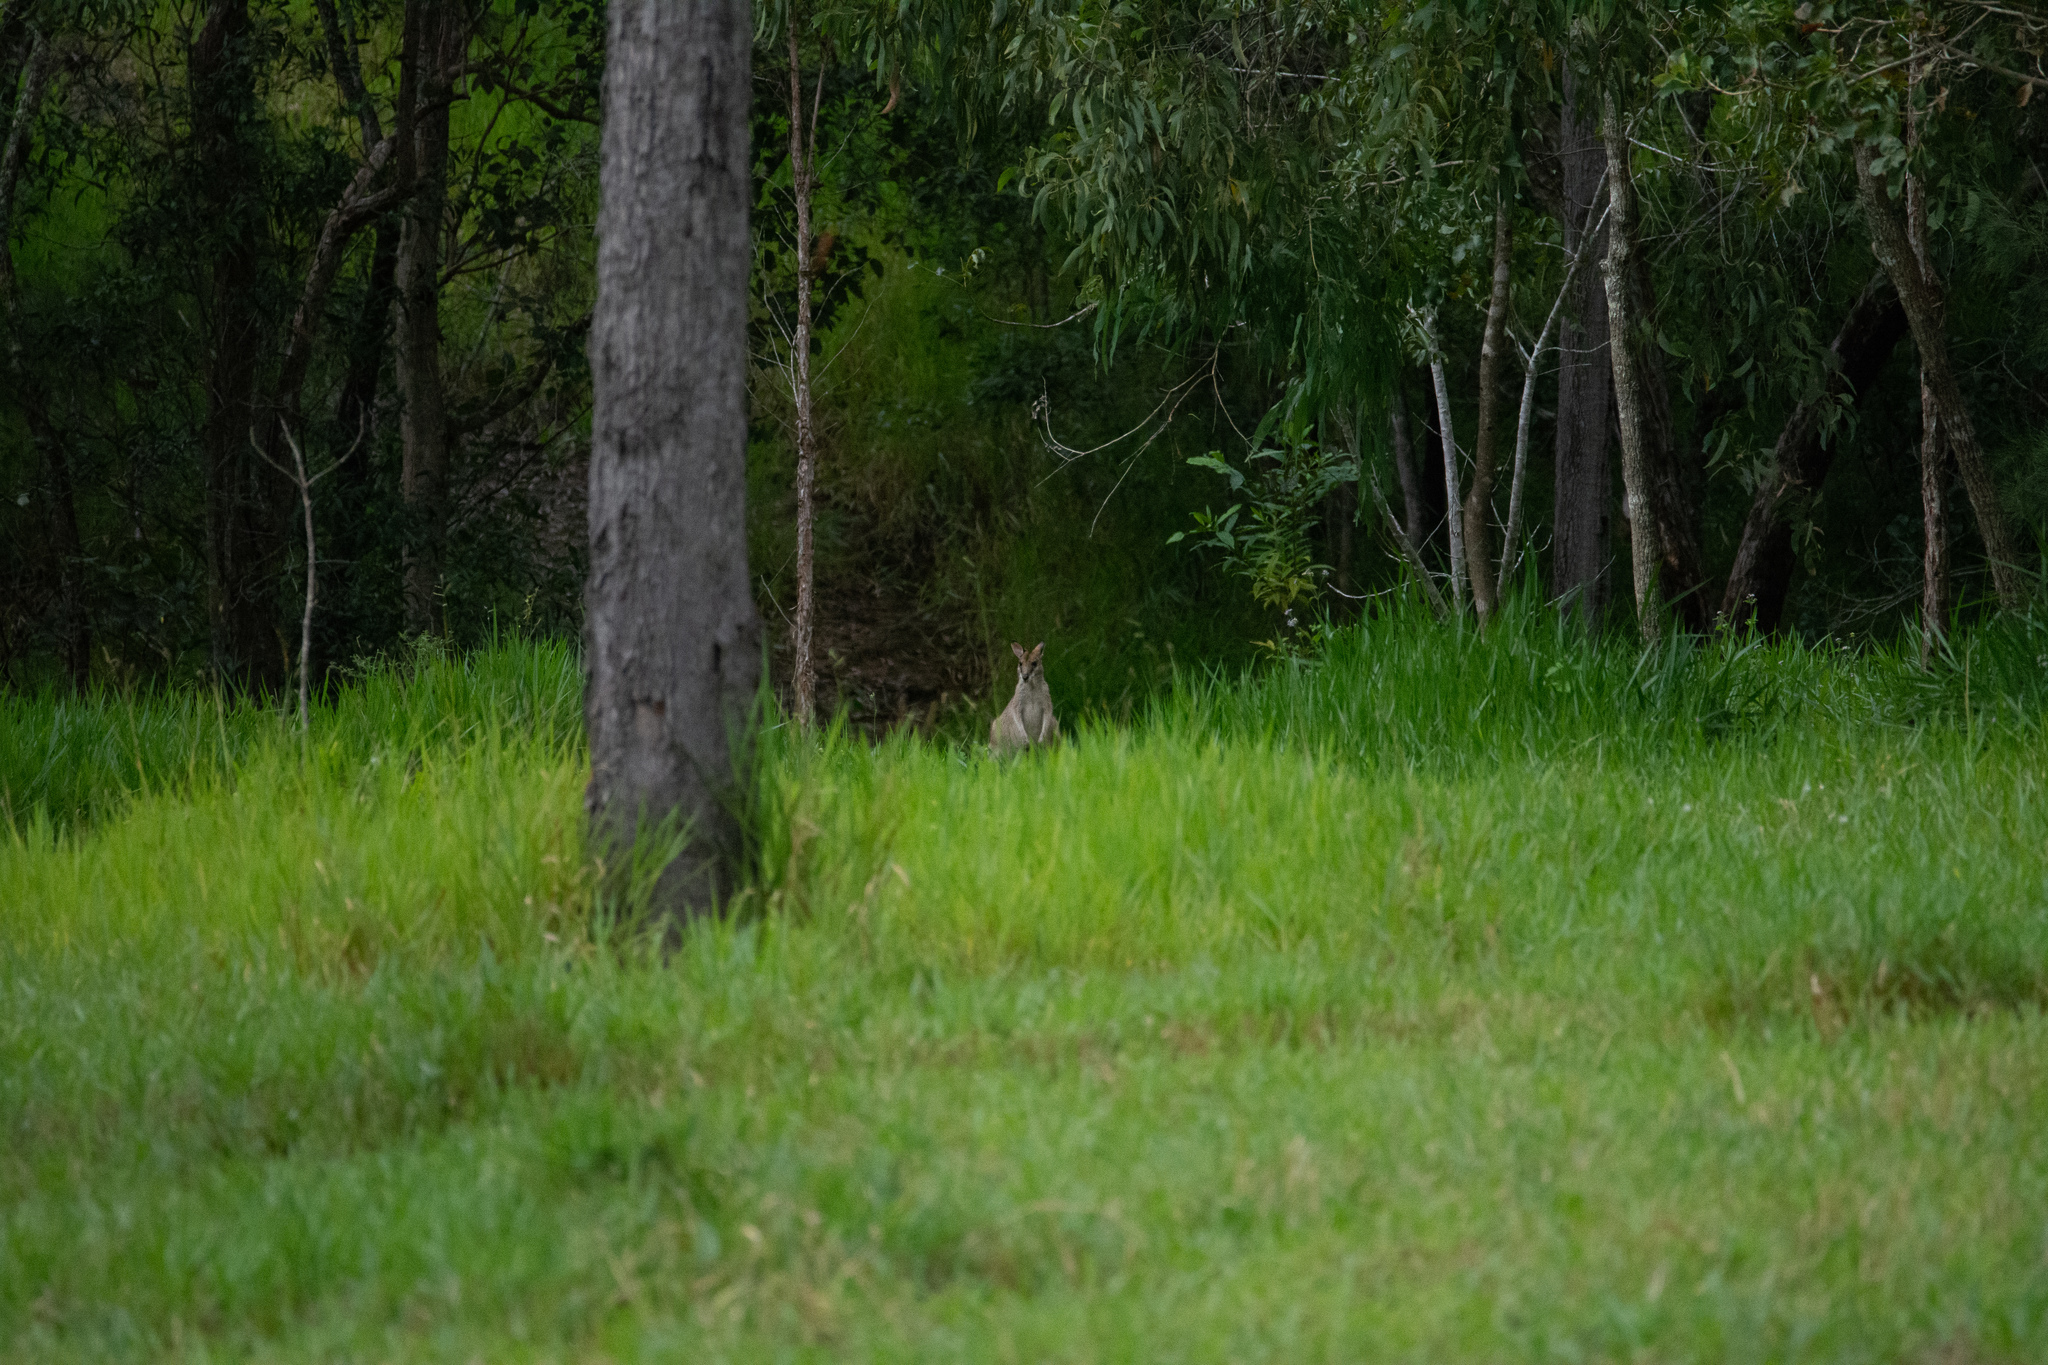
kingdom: Animalia
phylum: Chordata
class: Mammalia
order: Diprotodontia
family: Macropodidae
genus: Macropus
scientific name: Macropus agilis
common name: Agile wallaby
